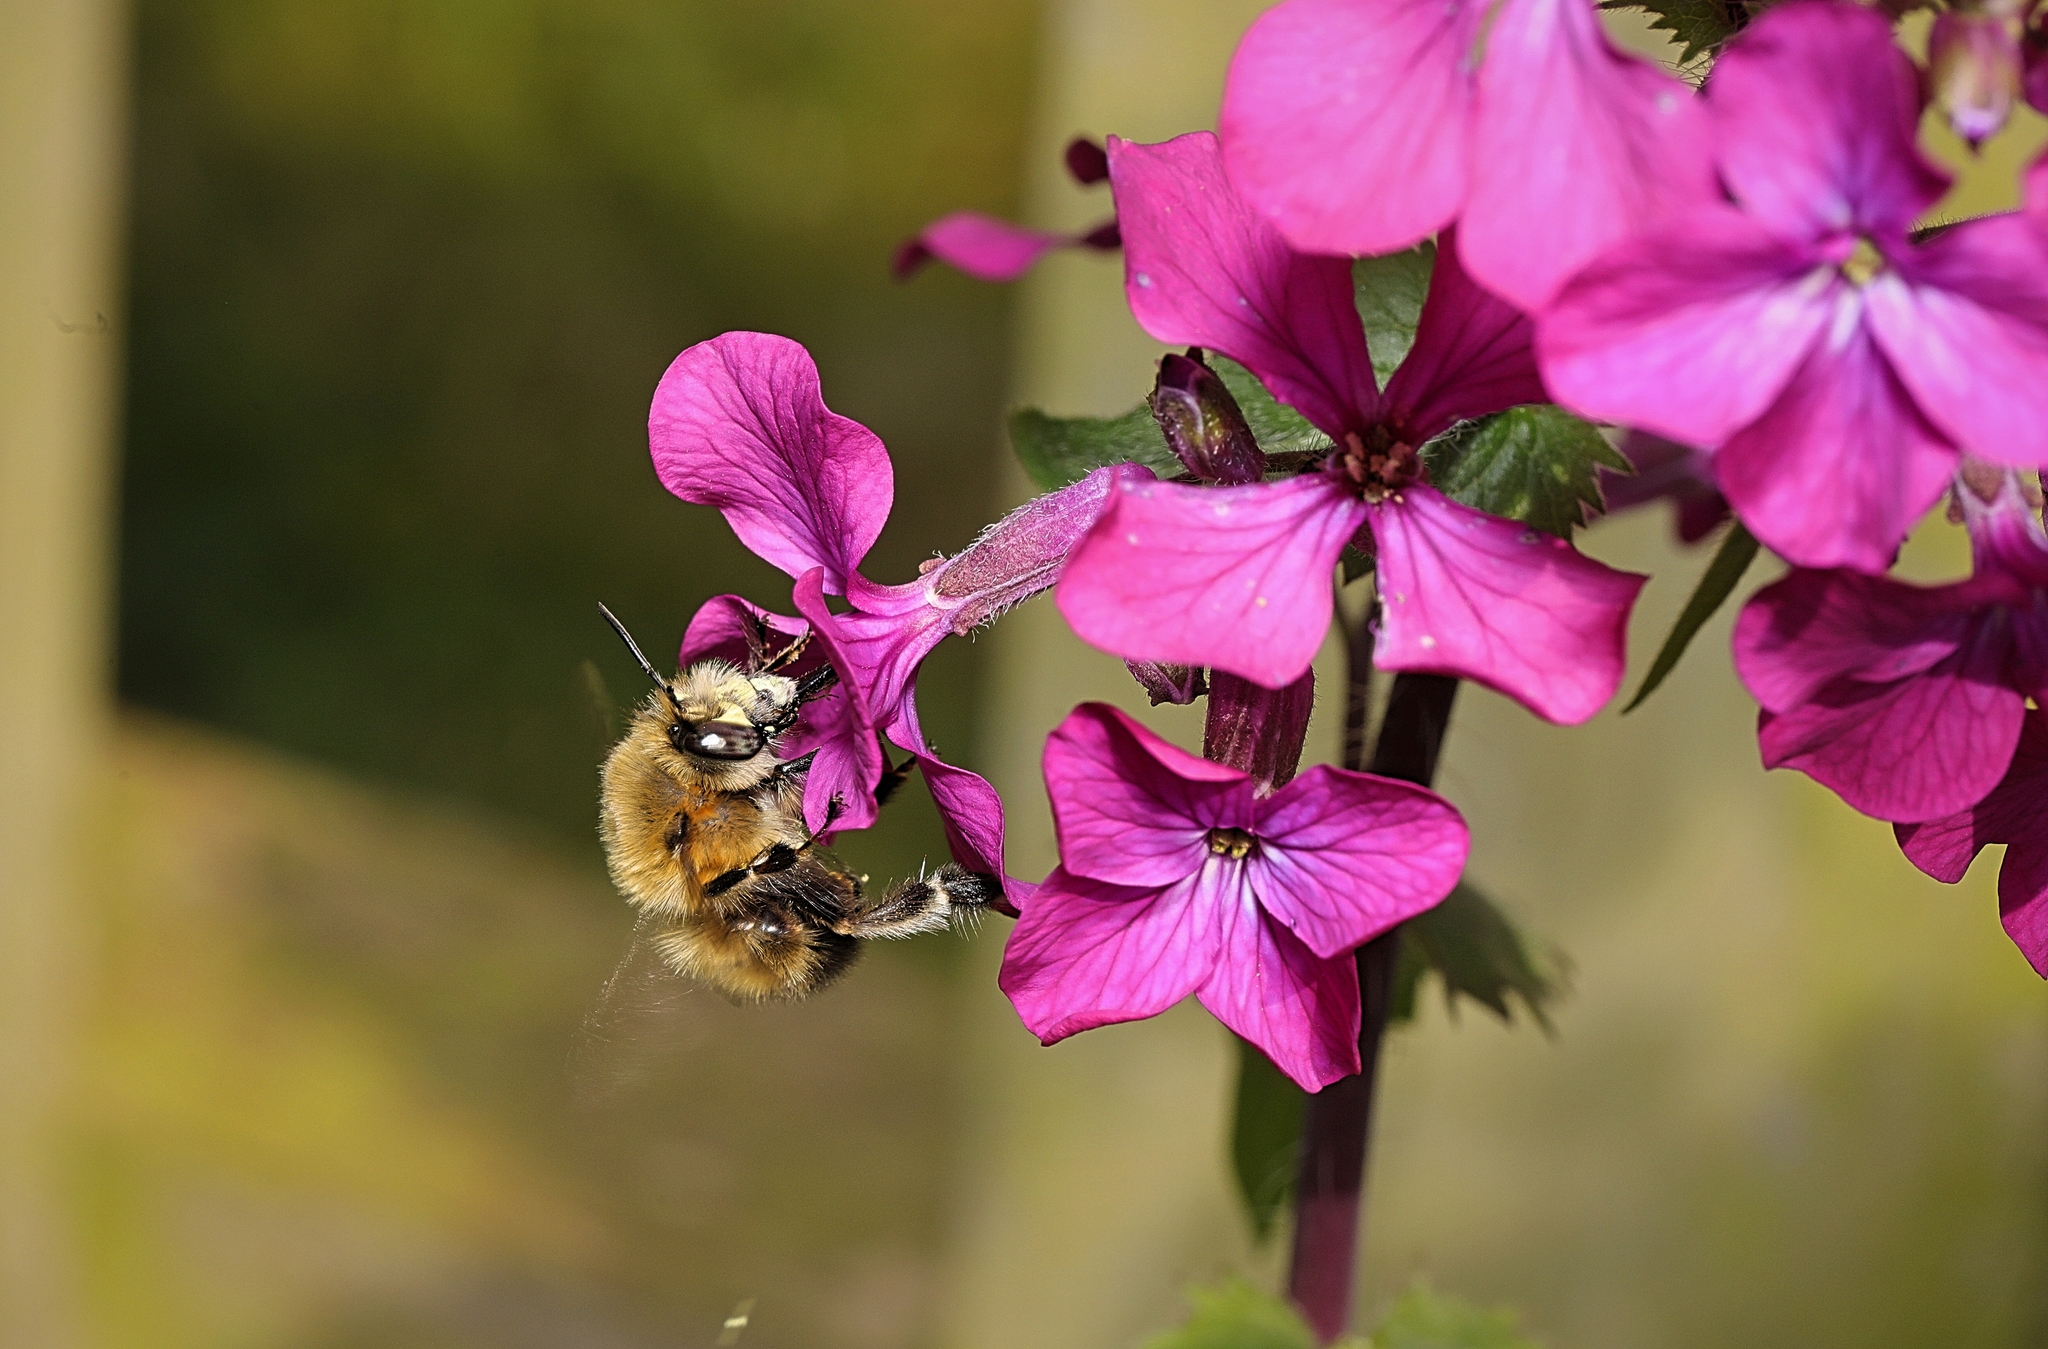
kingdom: Animalia
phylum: Arthropoda
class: Insecta
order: Hymenoptera
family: Apidae
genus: Anthophora
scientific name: Anthophora plumipes
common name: Hairy-footed flower bee
